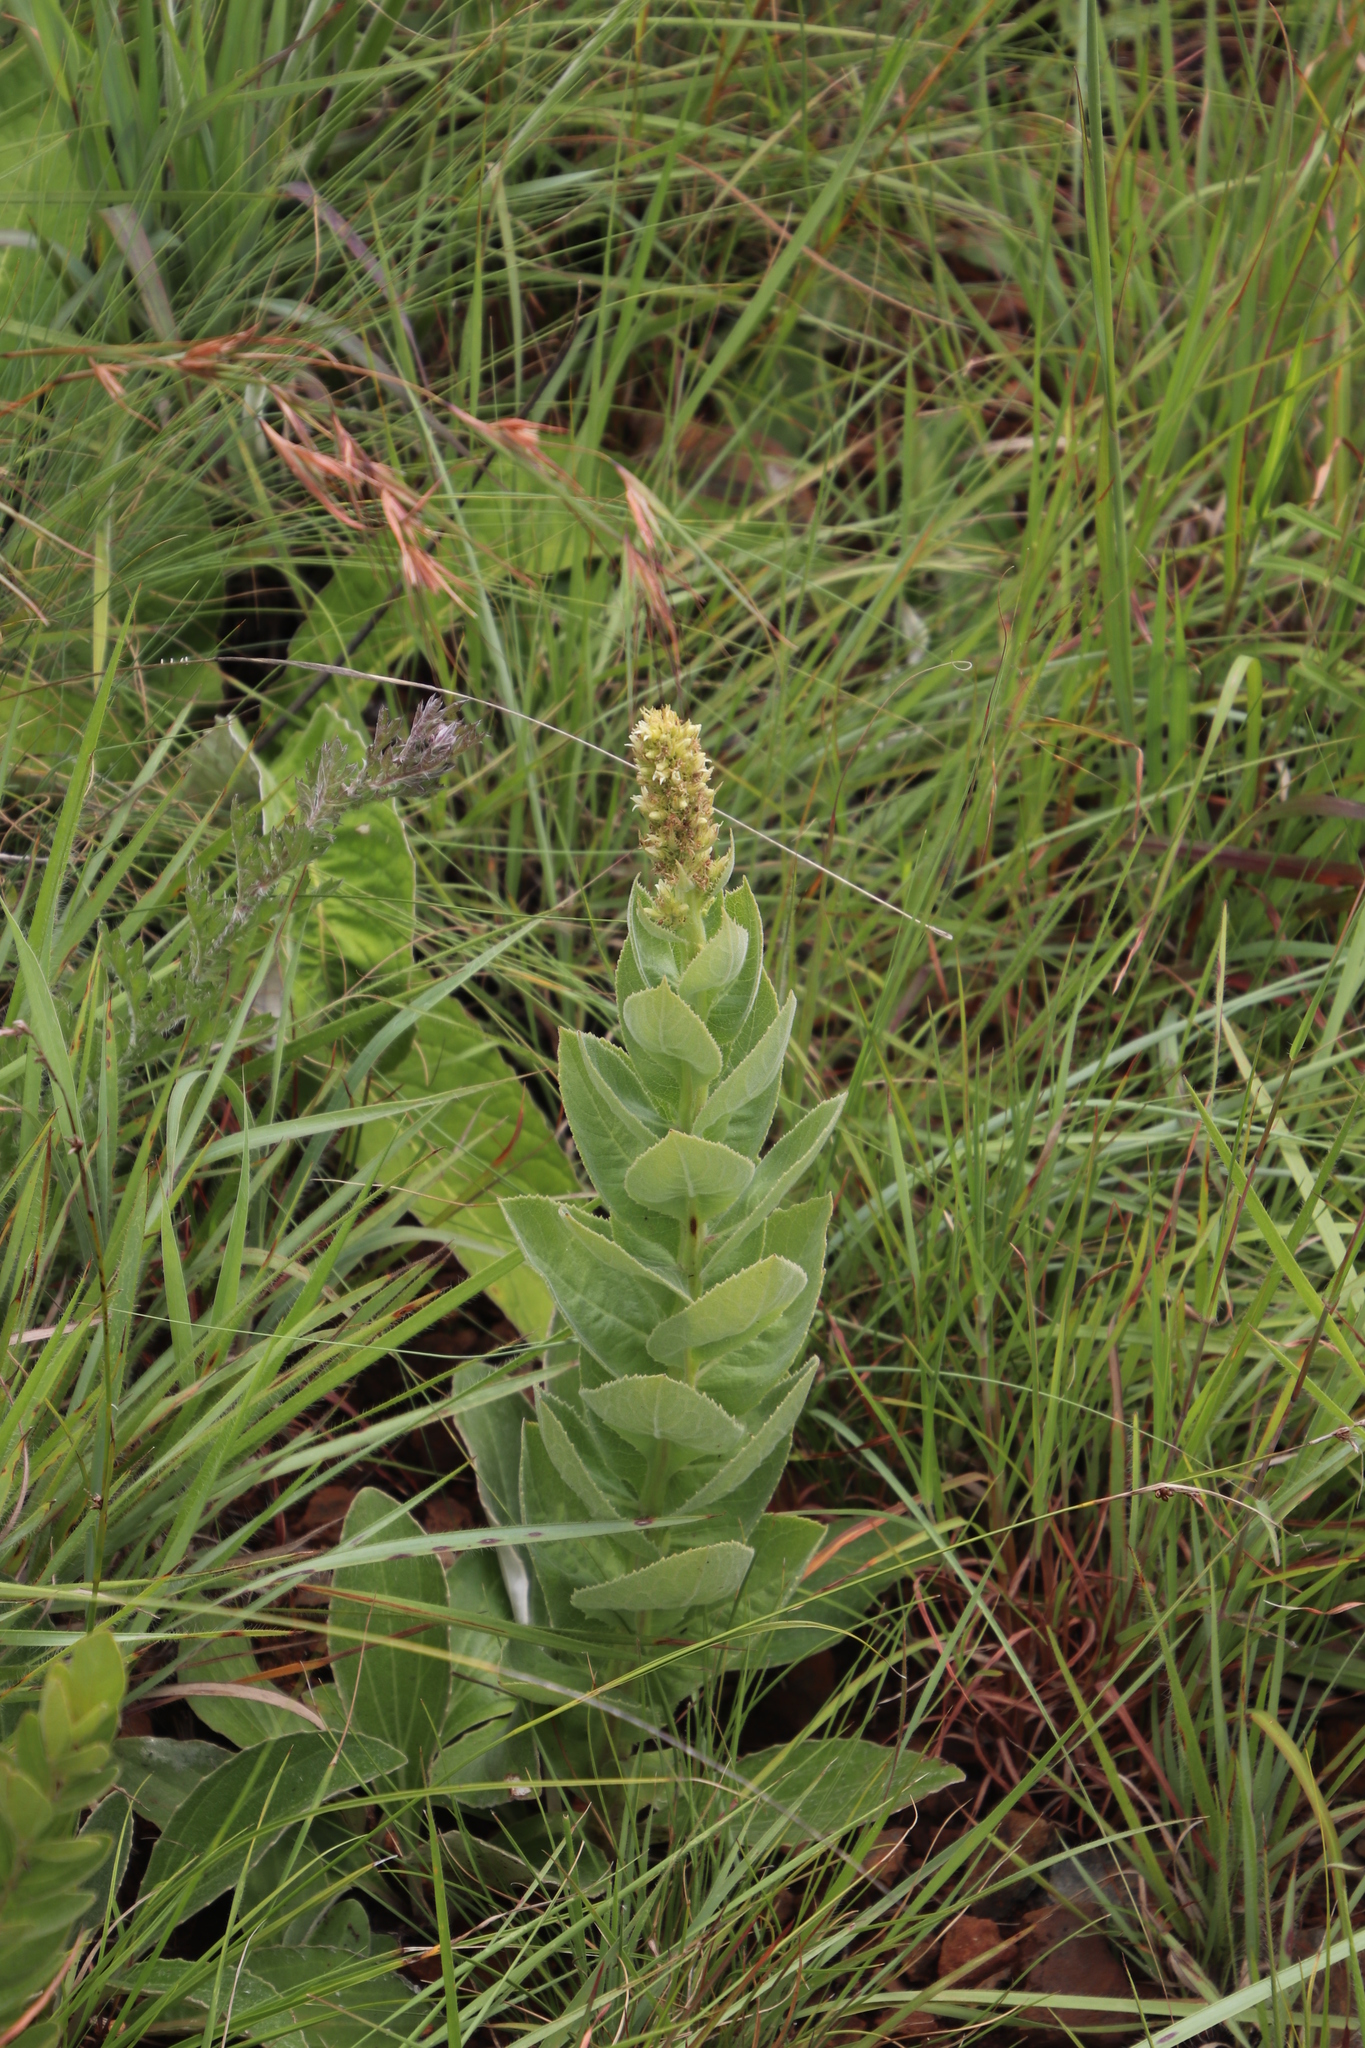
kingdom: Plantae
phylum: Tracheophyta
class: Magnoliopsida
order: Asterales
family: Campanulaceae
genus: Cyphia
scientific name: Cyphia elata
